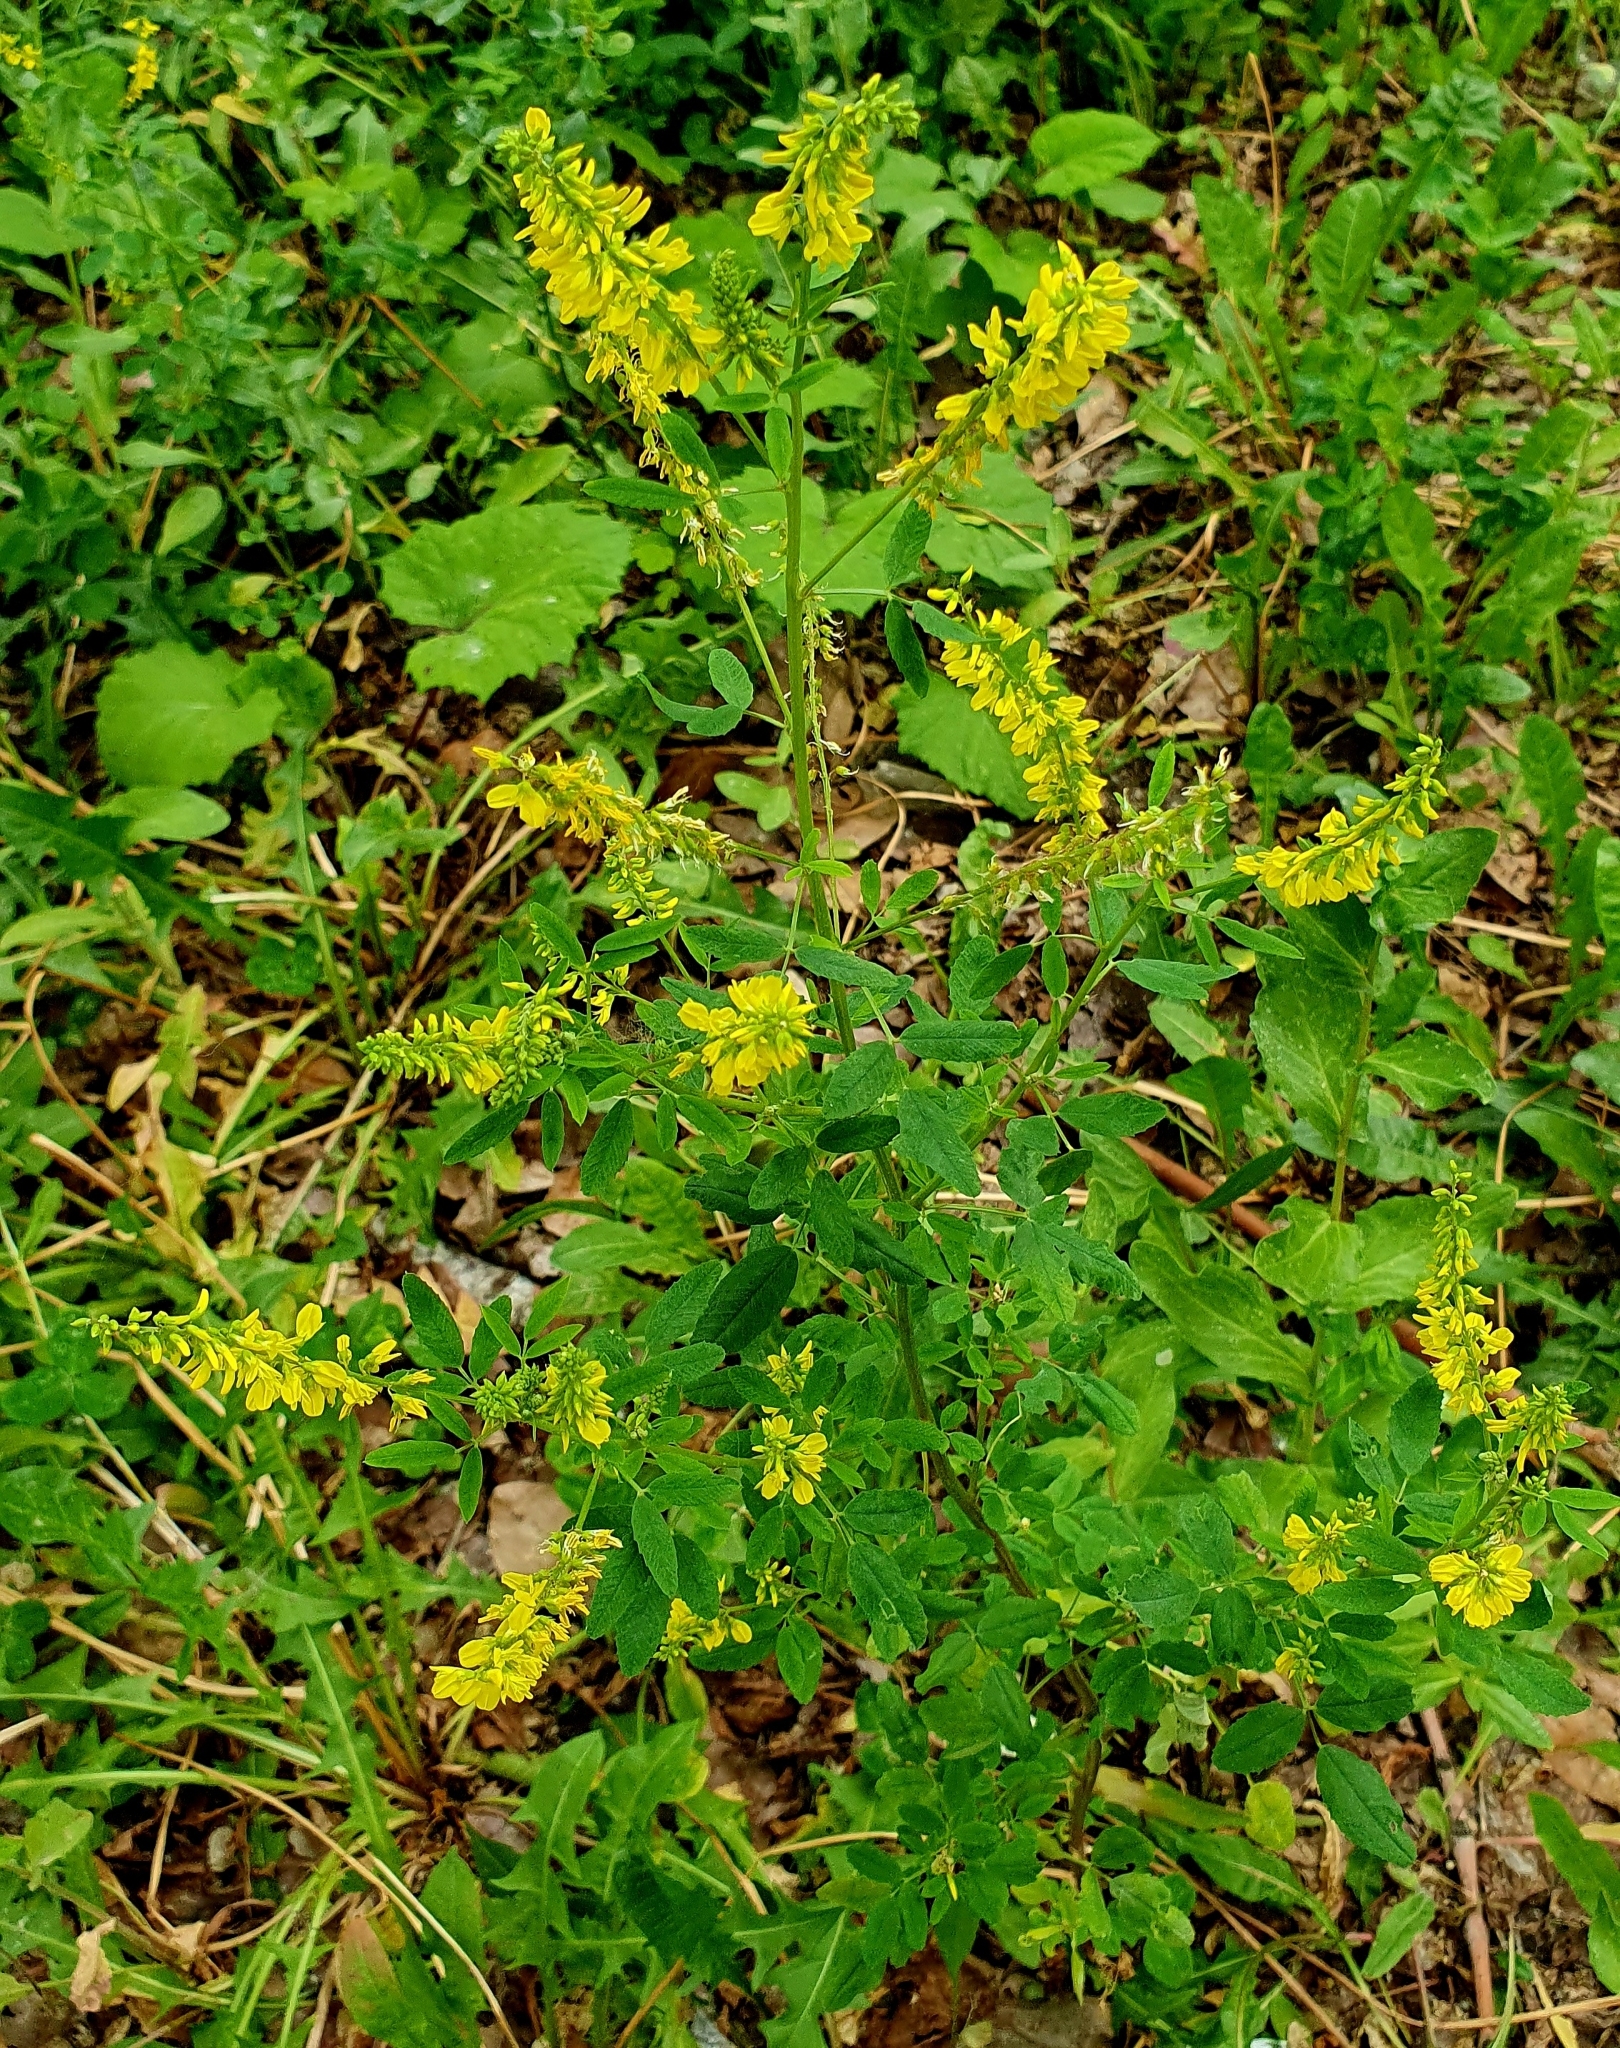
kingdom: Plantae
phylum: Tracheophyta
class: Magnoliopsida
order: Fabales
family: Fabaceae
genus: Melilotus
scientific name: Melilotus officinalis
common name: Sweetclover
